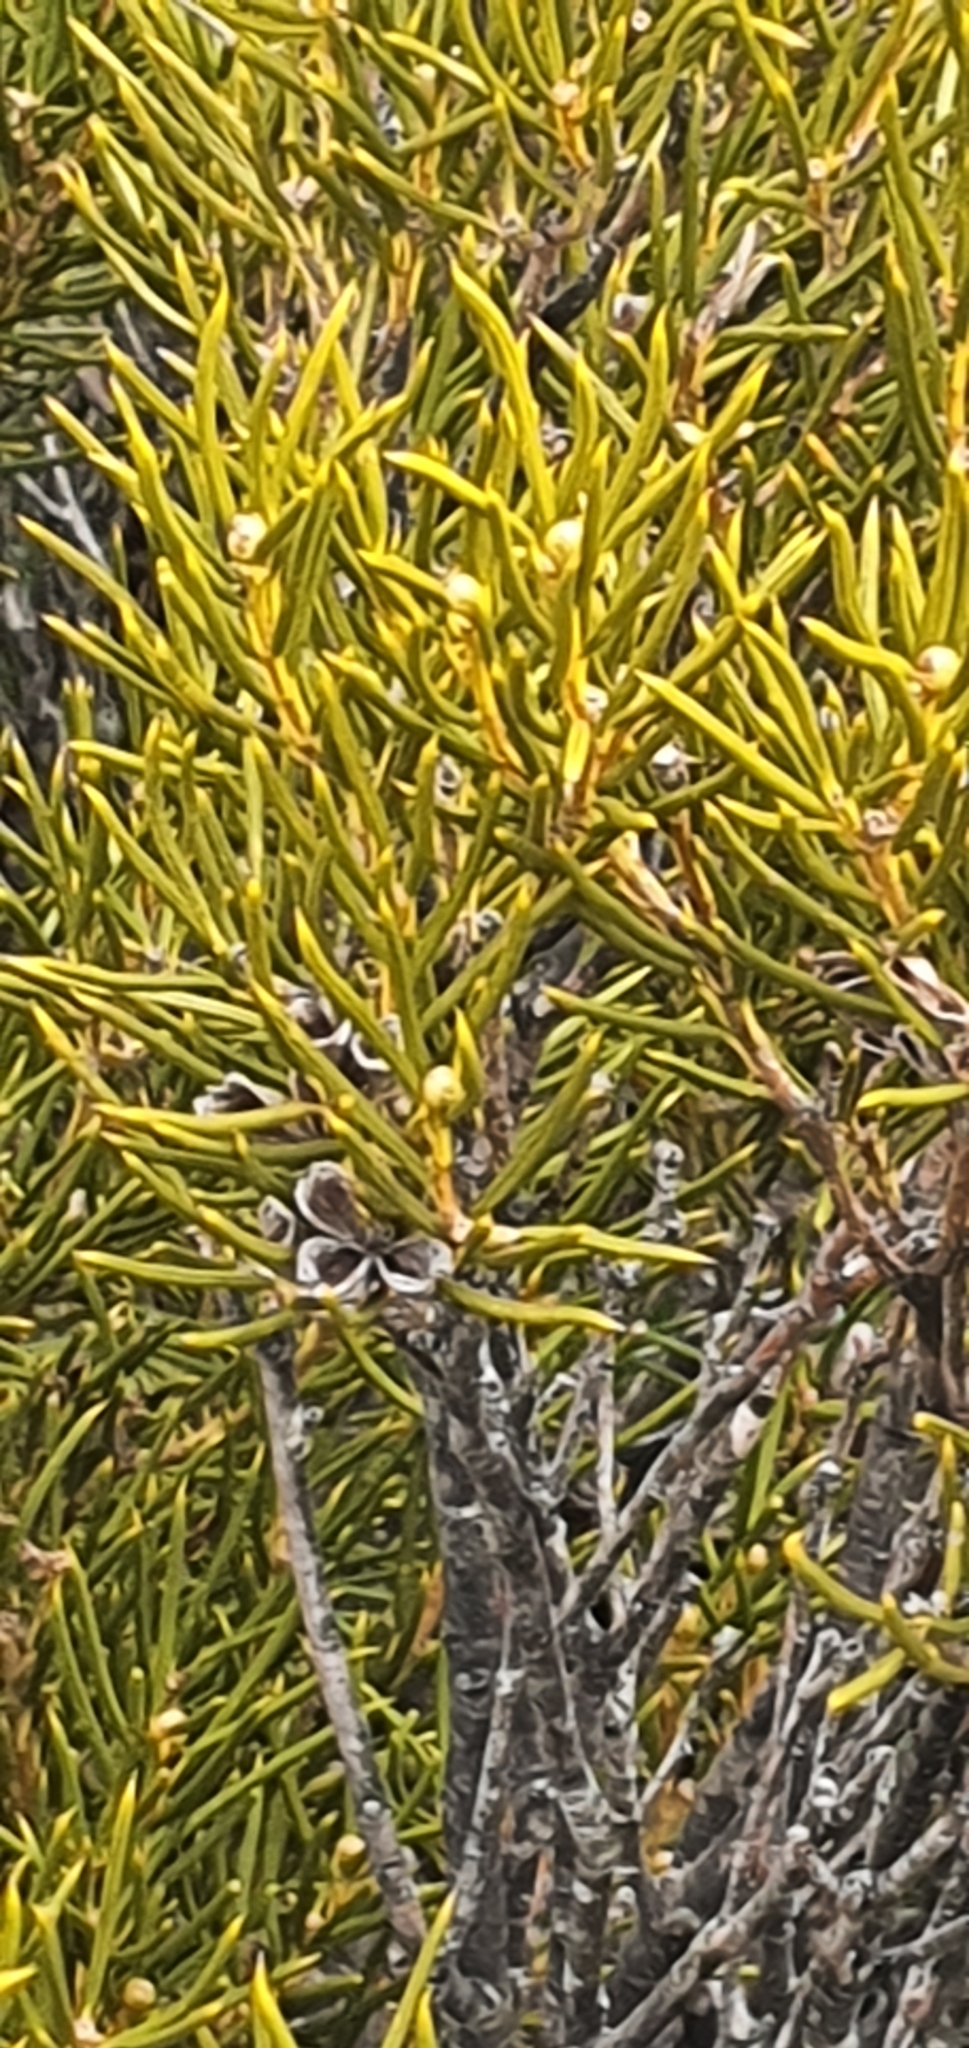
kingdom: Plantae
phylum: Tracheophyta
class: Magnoliopsida
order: Proteales
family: Proteaceae
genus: Orites
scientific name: Orites acicularis
